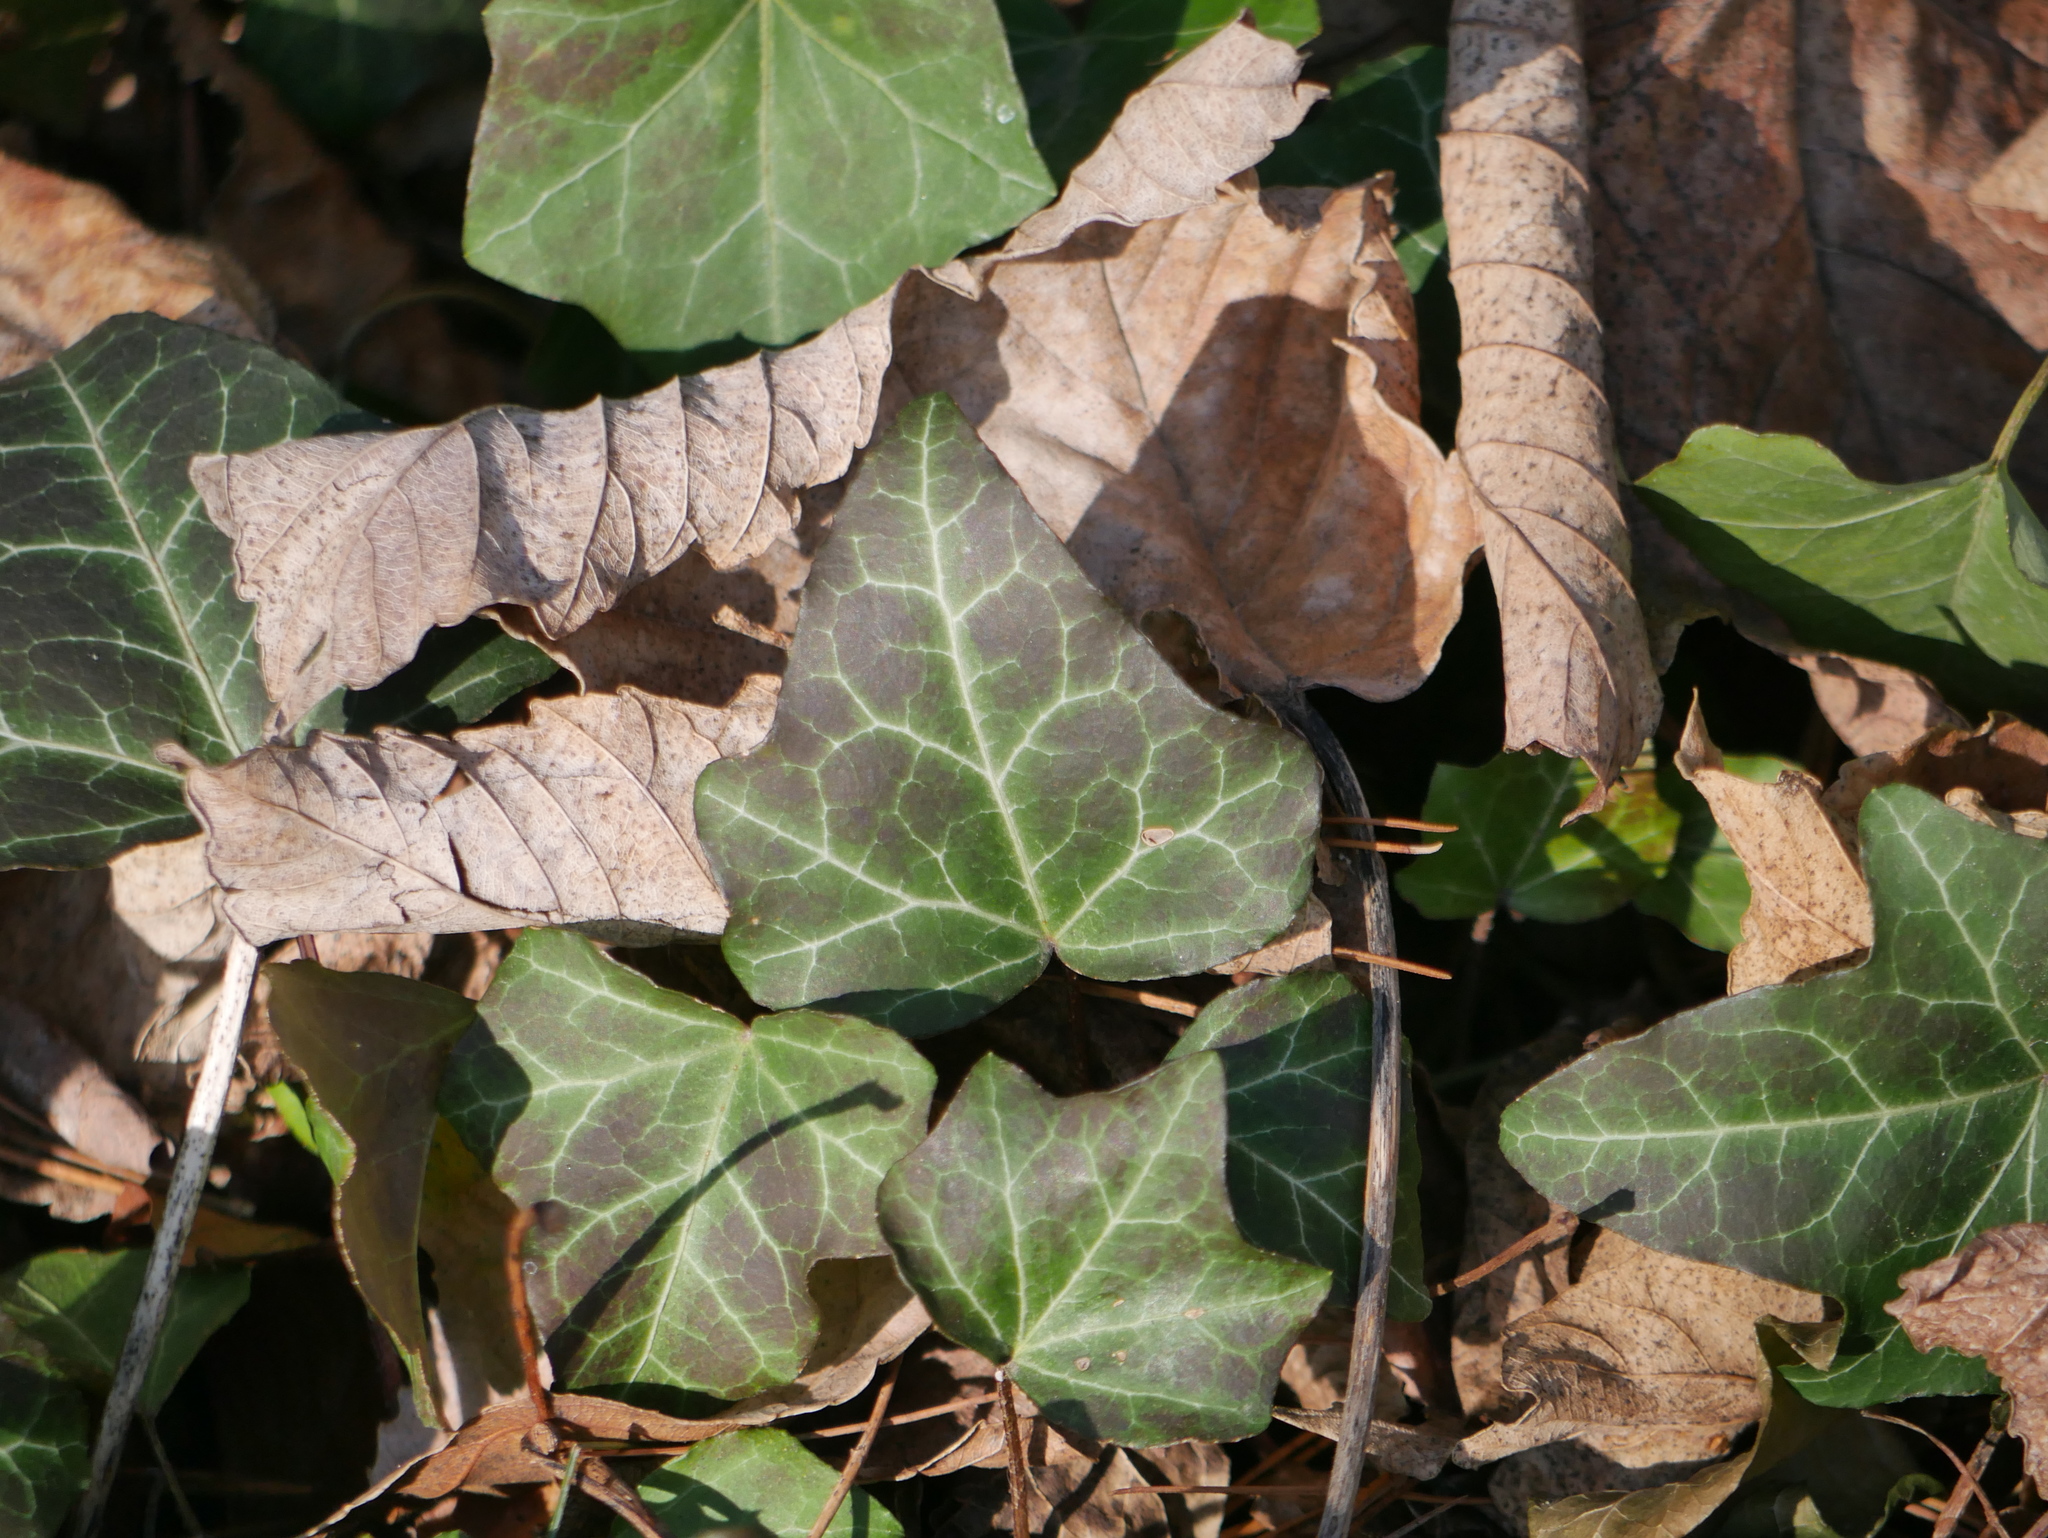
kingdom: Plantae
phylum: Tracheophyta
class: Magnoliopsida
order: Apiales
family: Araliaceae
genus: Hedera
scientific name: Hedera helix
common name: Ivy
